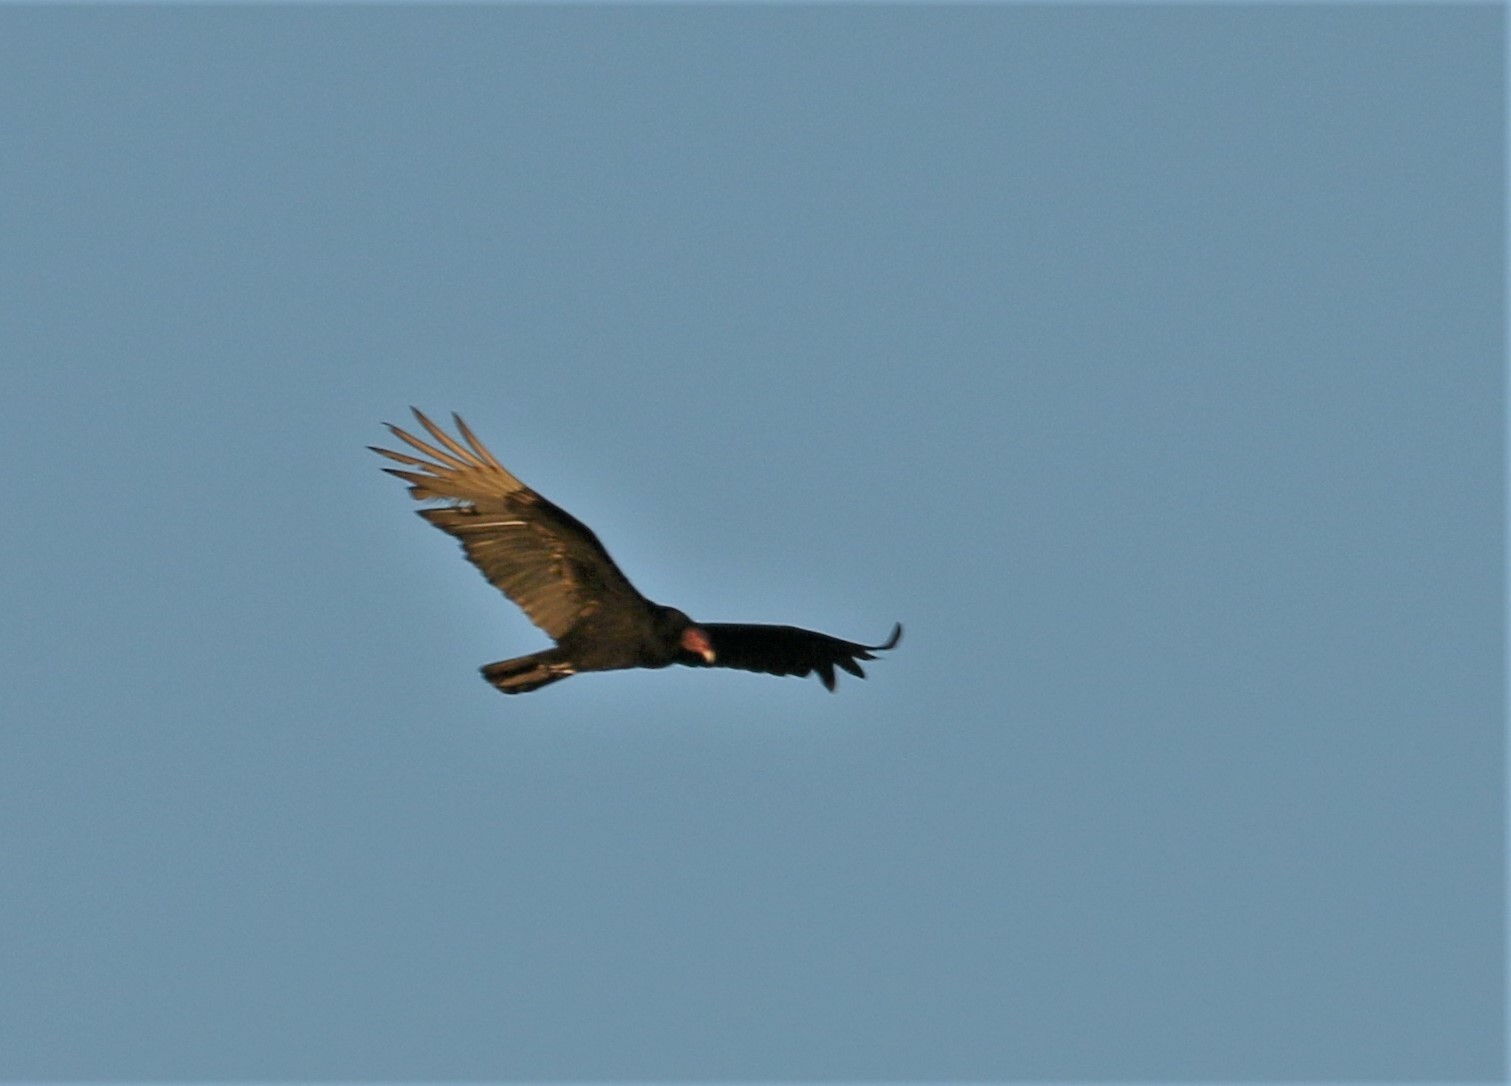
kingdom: Animalia
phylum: Chordata
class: Aves
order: Accipitriformes
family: Cathartidae
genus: Cathartes
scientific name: Cathartes aura
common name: Turkey vulture
